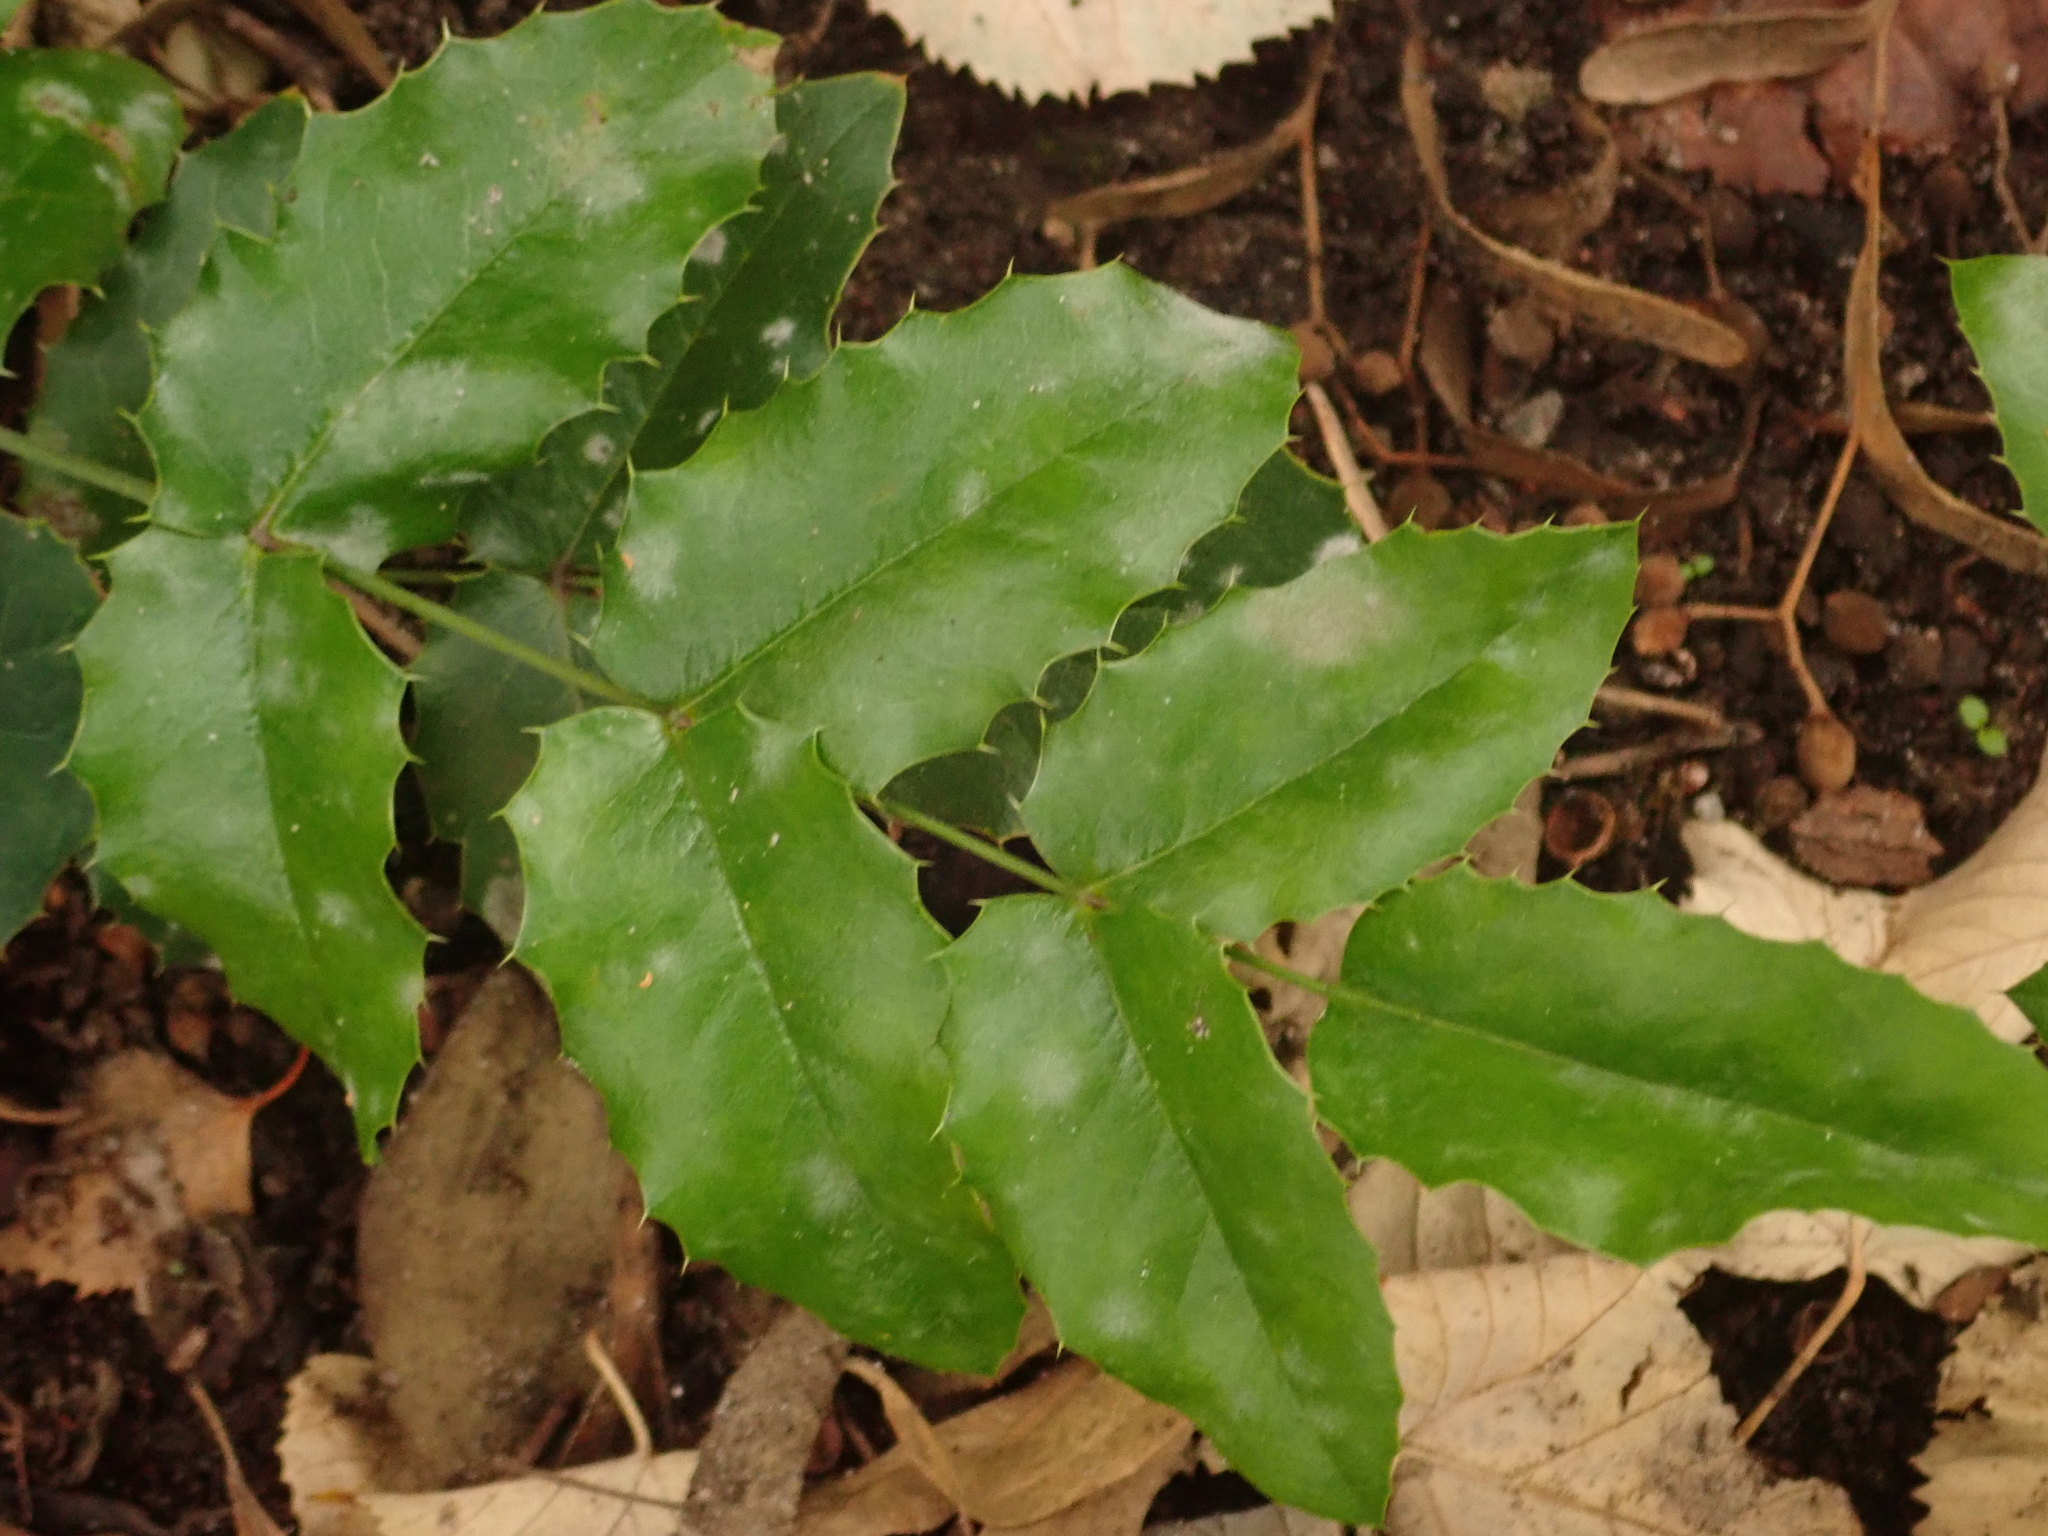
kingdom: Fungi
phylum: Ascomycota
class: Leotiomycetes
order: Helotiales
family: Erysiphaceae
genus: Erysiphe
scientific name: Erysiphe berberidis
